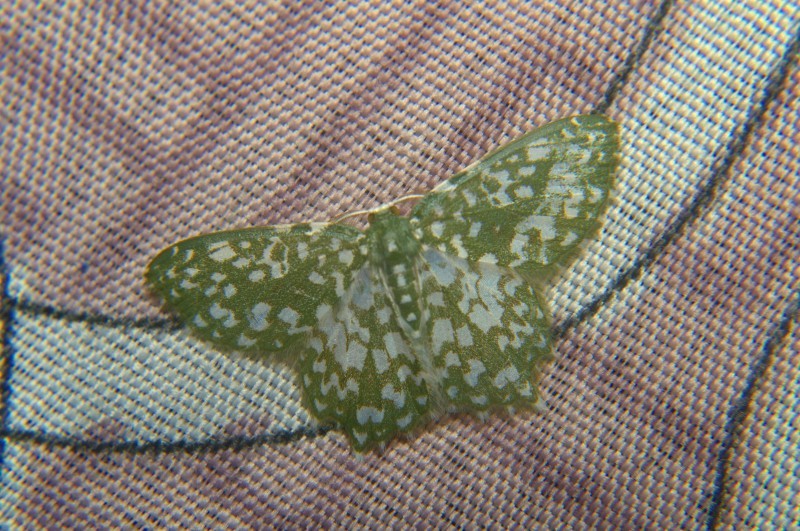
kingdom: Animalia
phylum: Arthropoda
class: Insecta
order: Lepidoptera
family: Geometridae
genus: Berta
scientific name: Berta chrysolineata
